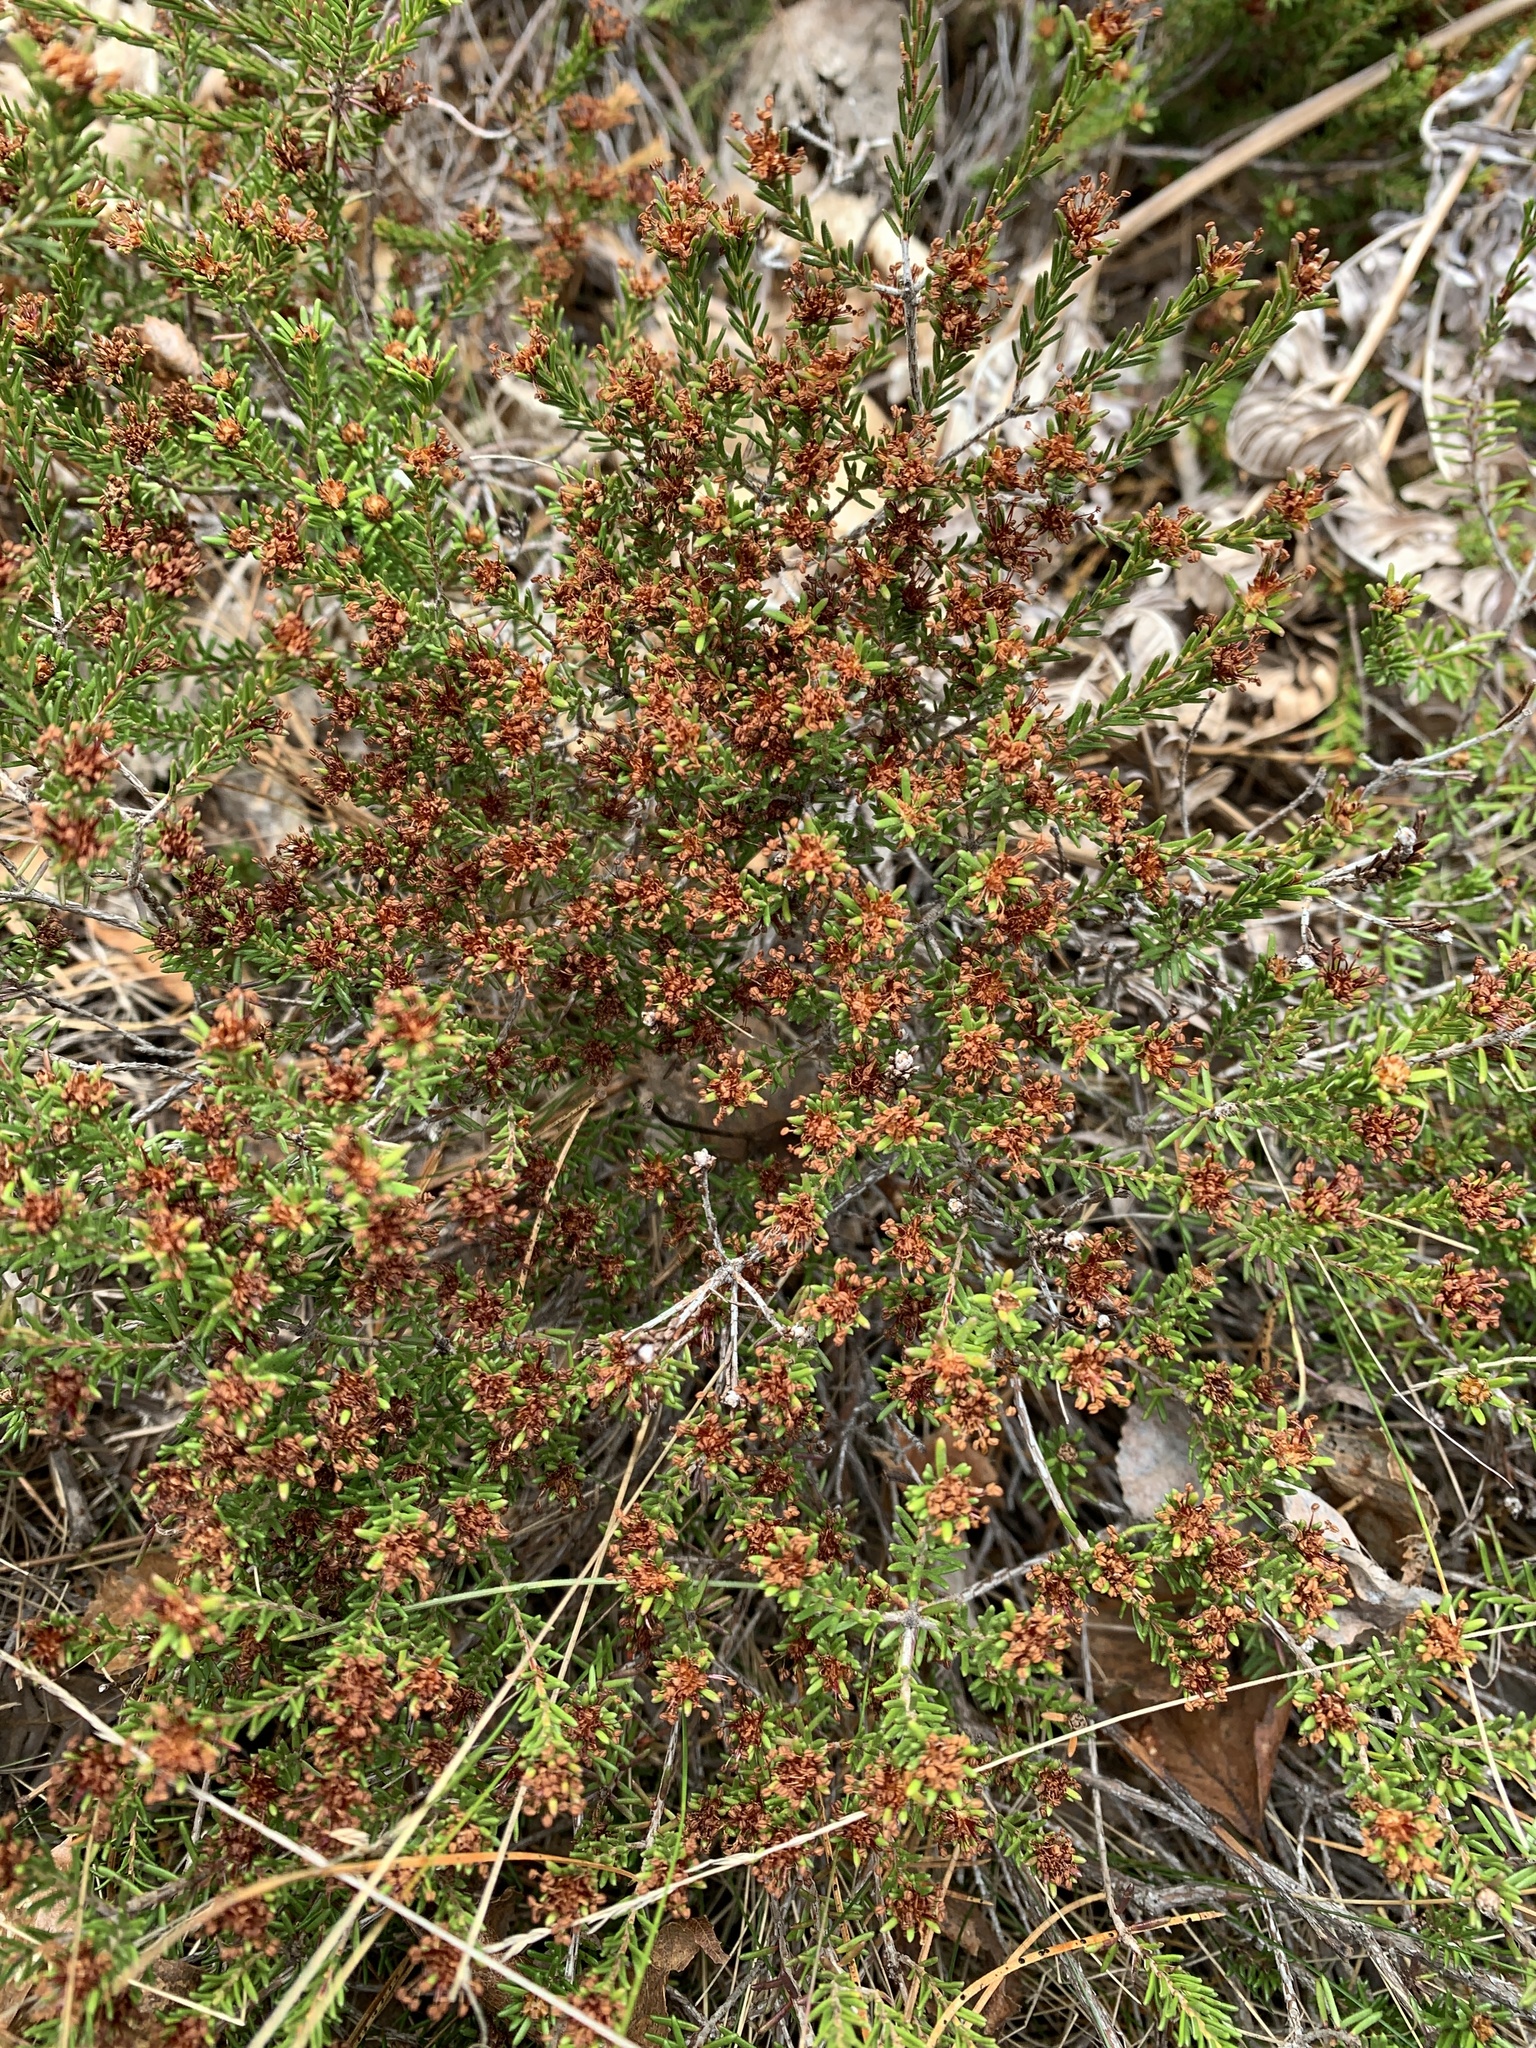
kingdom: Plantae
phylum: Tracheophyta
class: Magnoliopsida
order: Ericales
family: Ericaceae
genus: Corema
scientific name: Corema conradii
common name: Broom-crowberry
